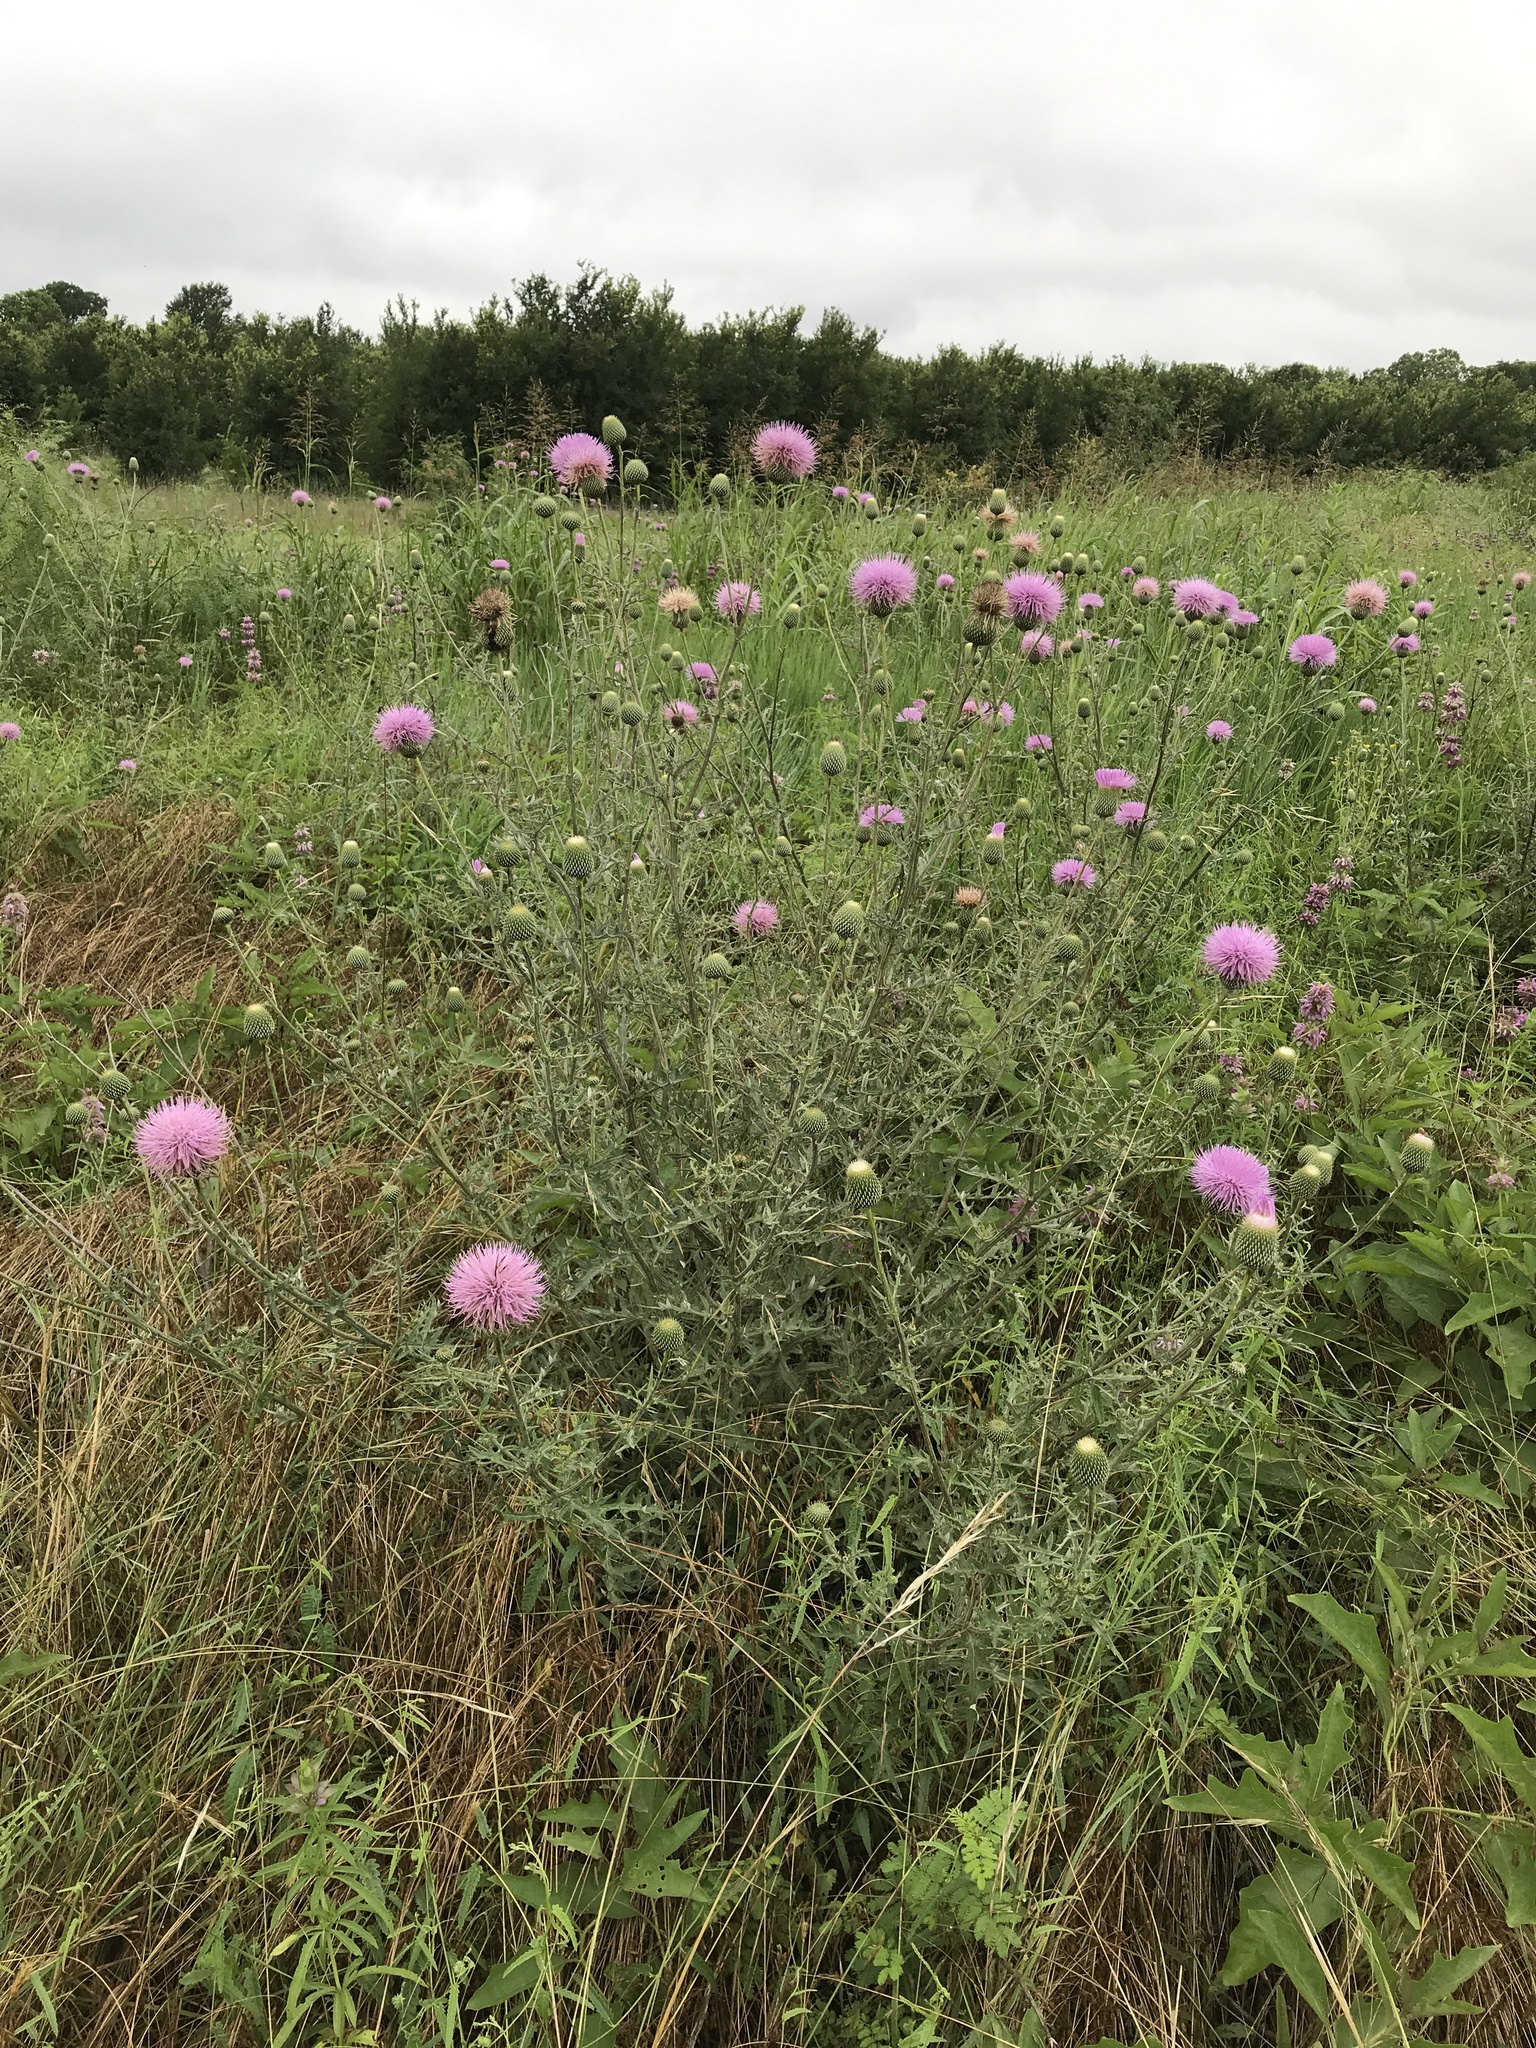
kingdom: Plantae
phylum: Tracheophyta
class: Magnoliopsida
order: Asterales
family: Asteraceae
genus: Cirsium
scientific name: Cirsium texanum
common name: Texas purple thistle
